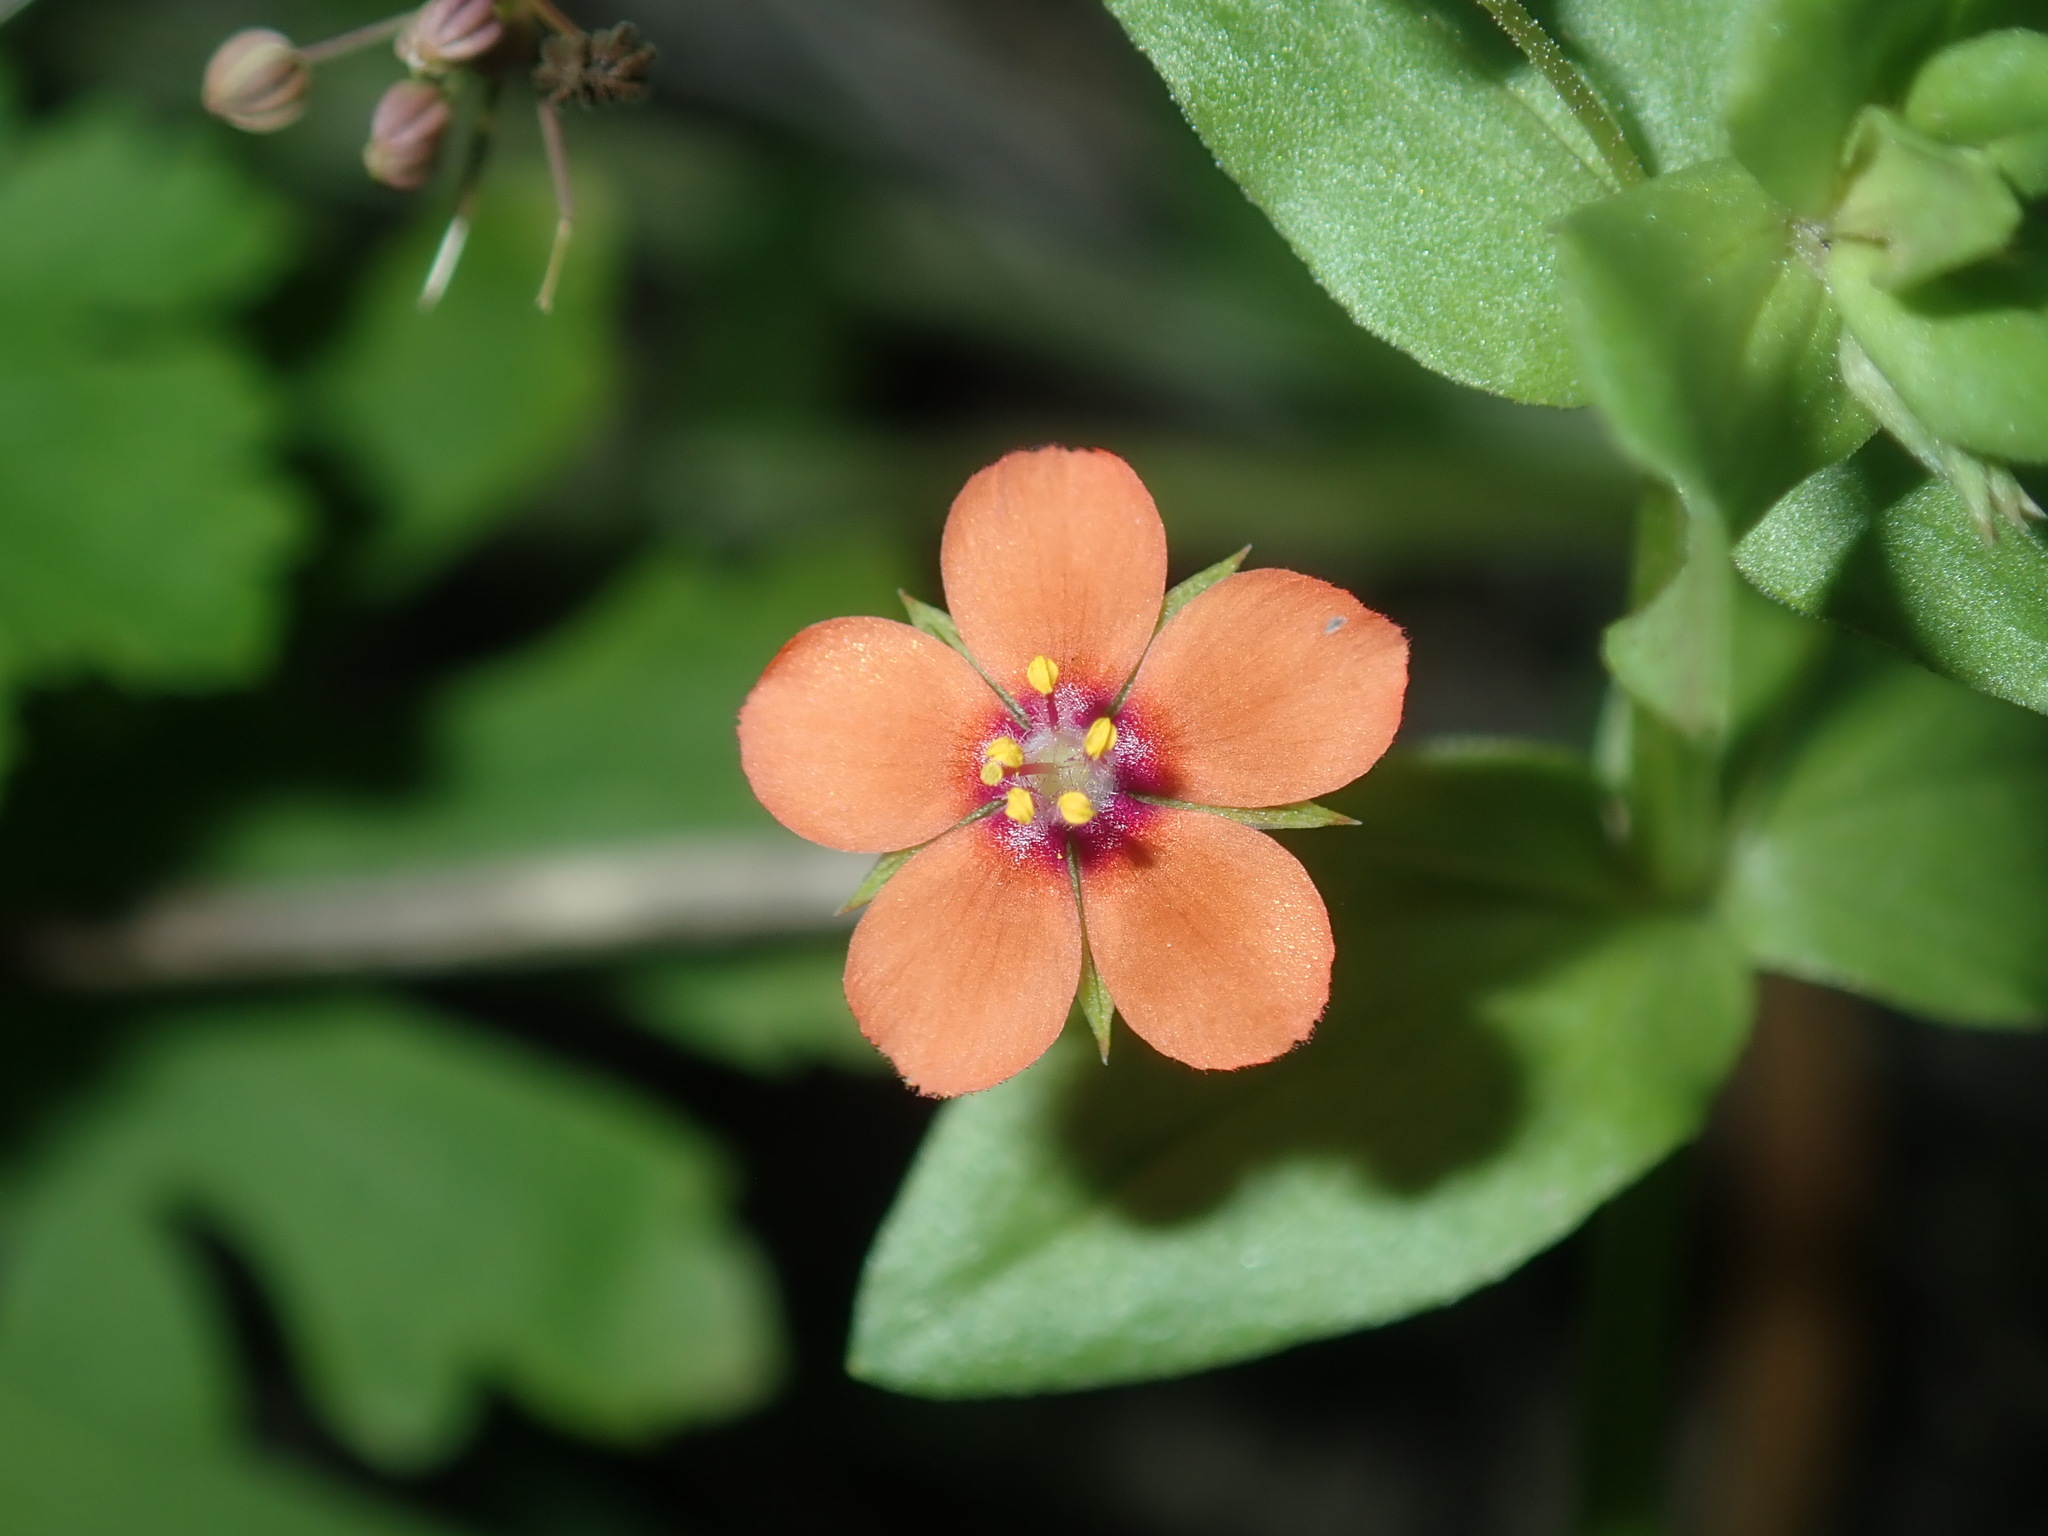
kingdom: Plantae
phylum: Tracheophyta
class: Magnoliopsida
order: Ericales
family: Primulaceae
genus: Lysimachia
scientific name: Lysimachia arvensis
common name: Scarlet pimpernel
